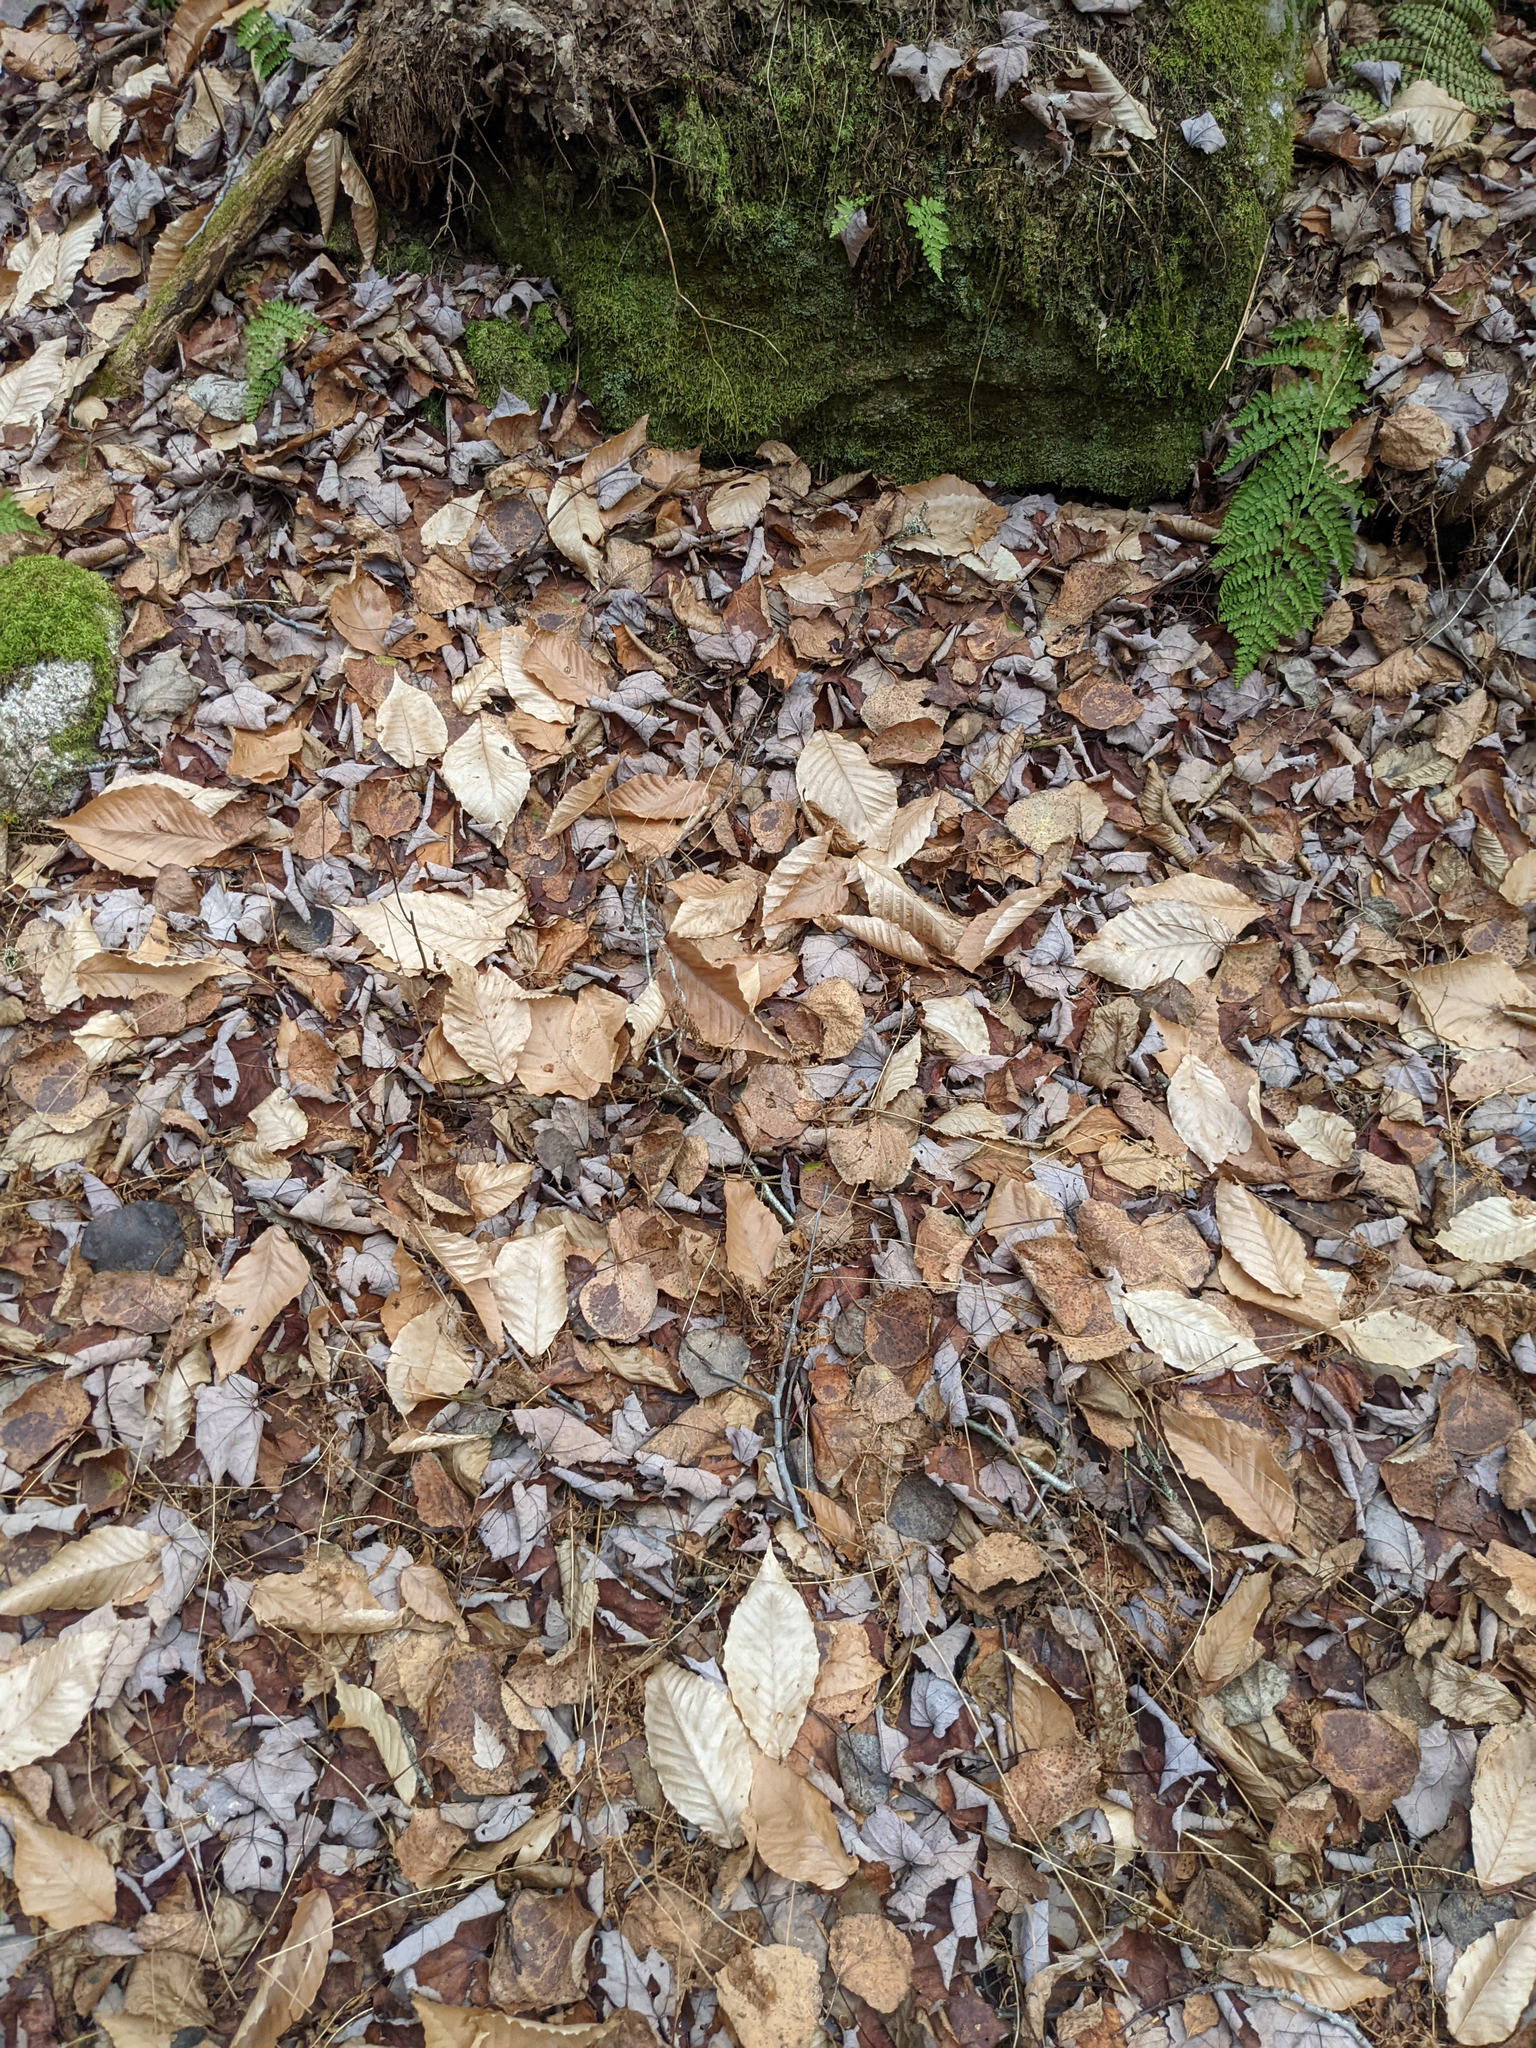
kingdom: Plantae
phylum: Tracheophyta
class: Magnoliopsida
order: Fagales
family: Fagaceae
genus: Fagus
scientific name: Fagus grandifolia
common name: American beech
